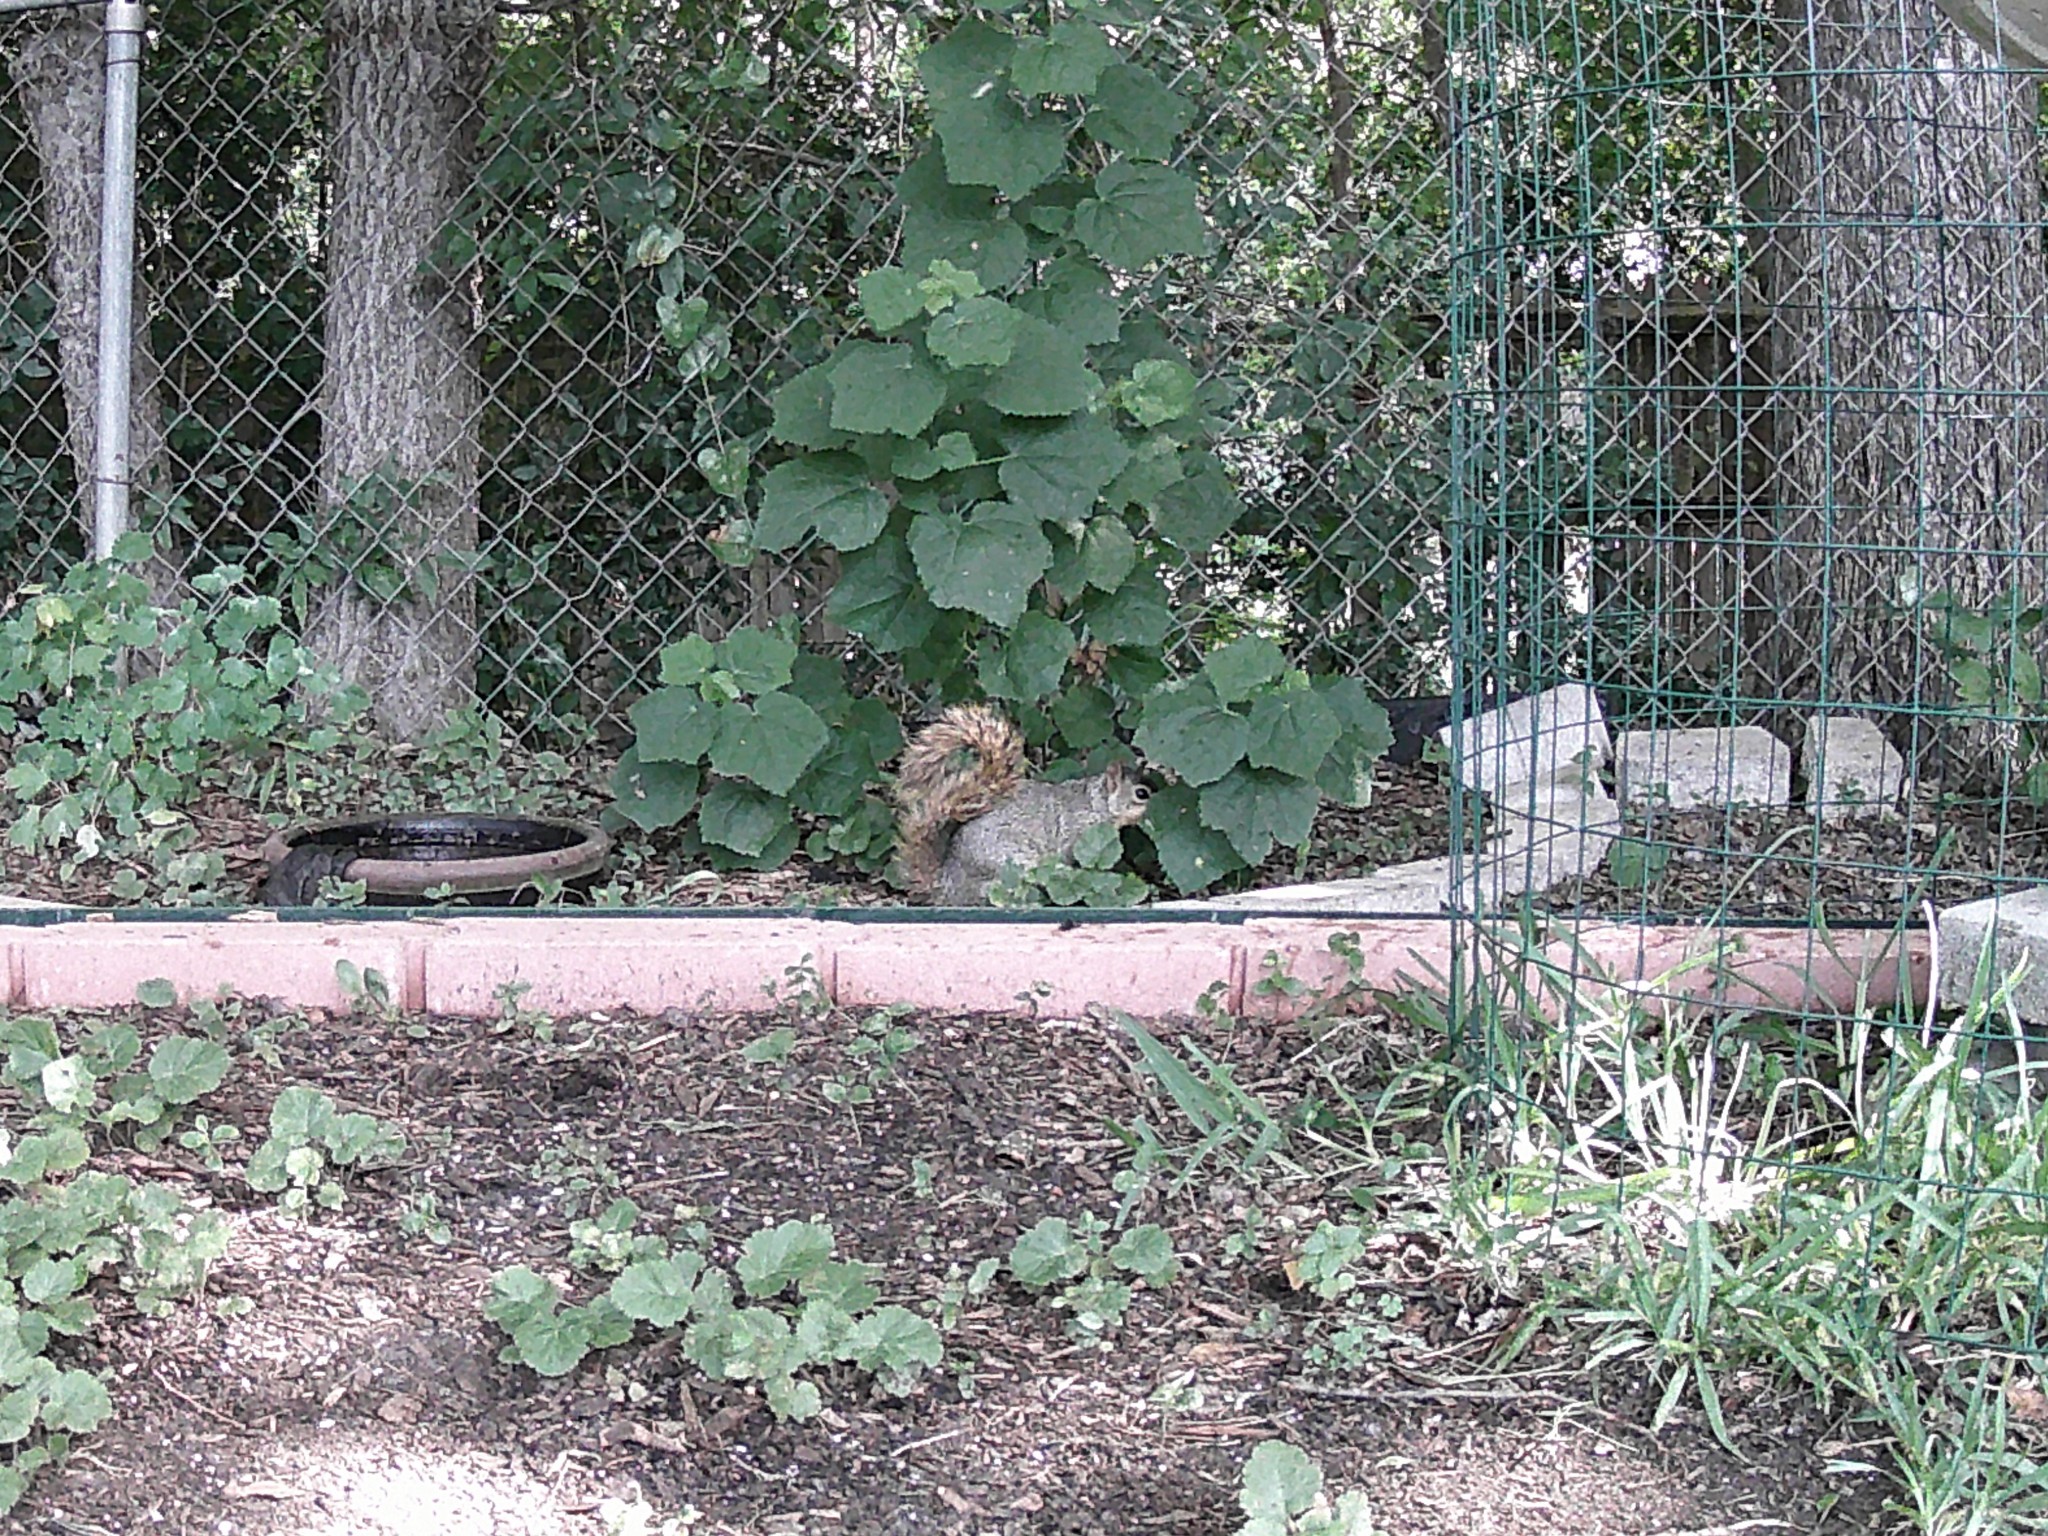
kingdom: Animalia
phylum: Chordata
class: Mammalia
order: Rodentia
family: Sciuridae
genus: Sciurus
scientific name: Sciurus niger
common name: Fox squirrel
